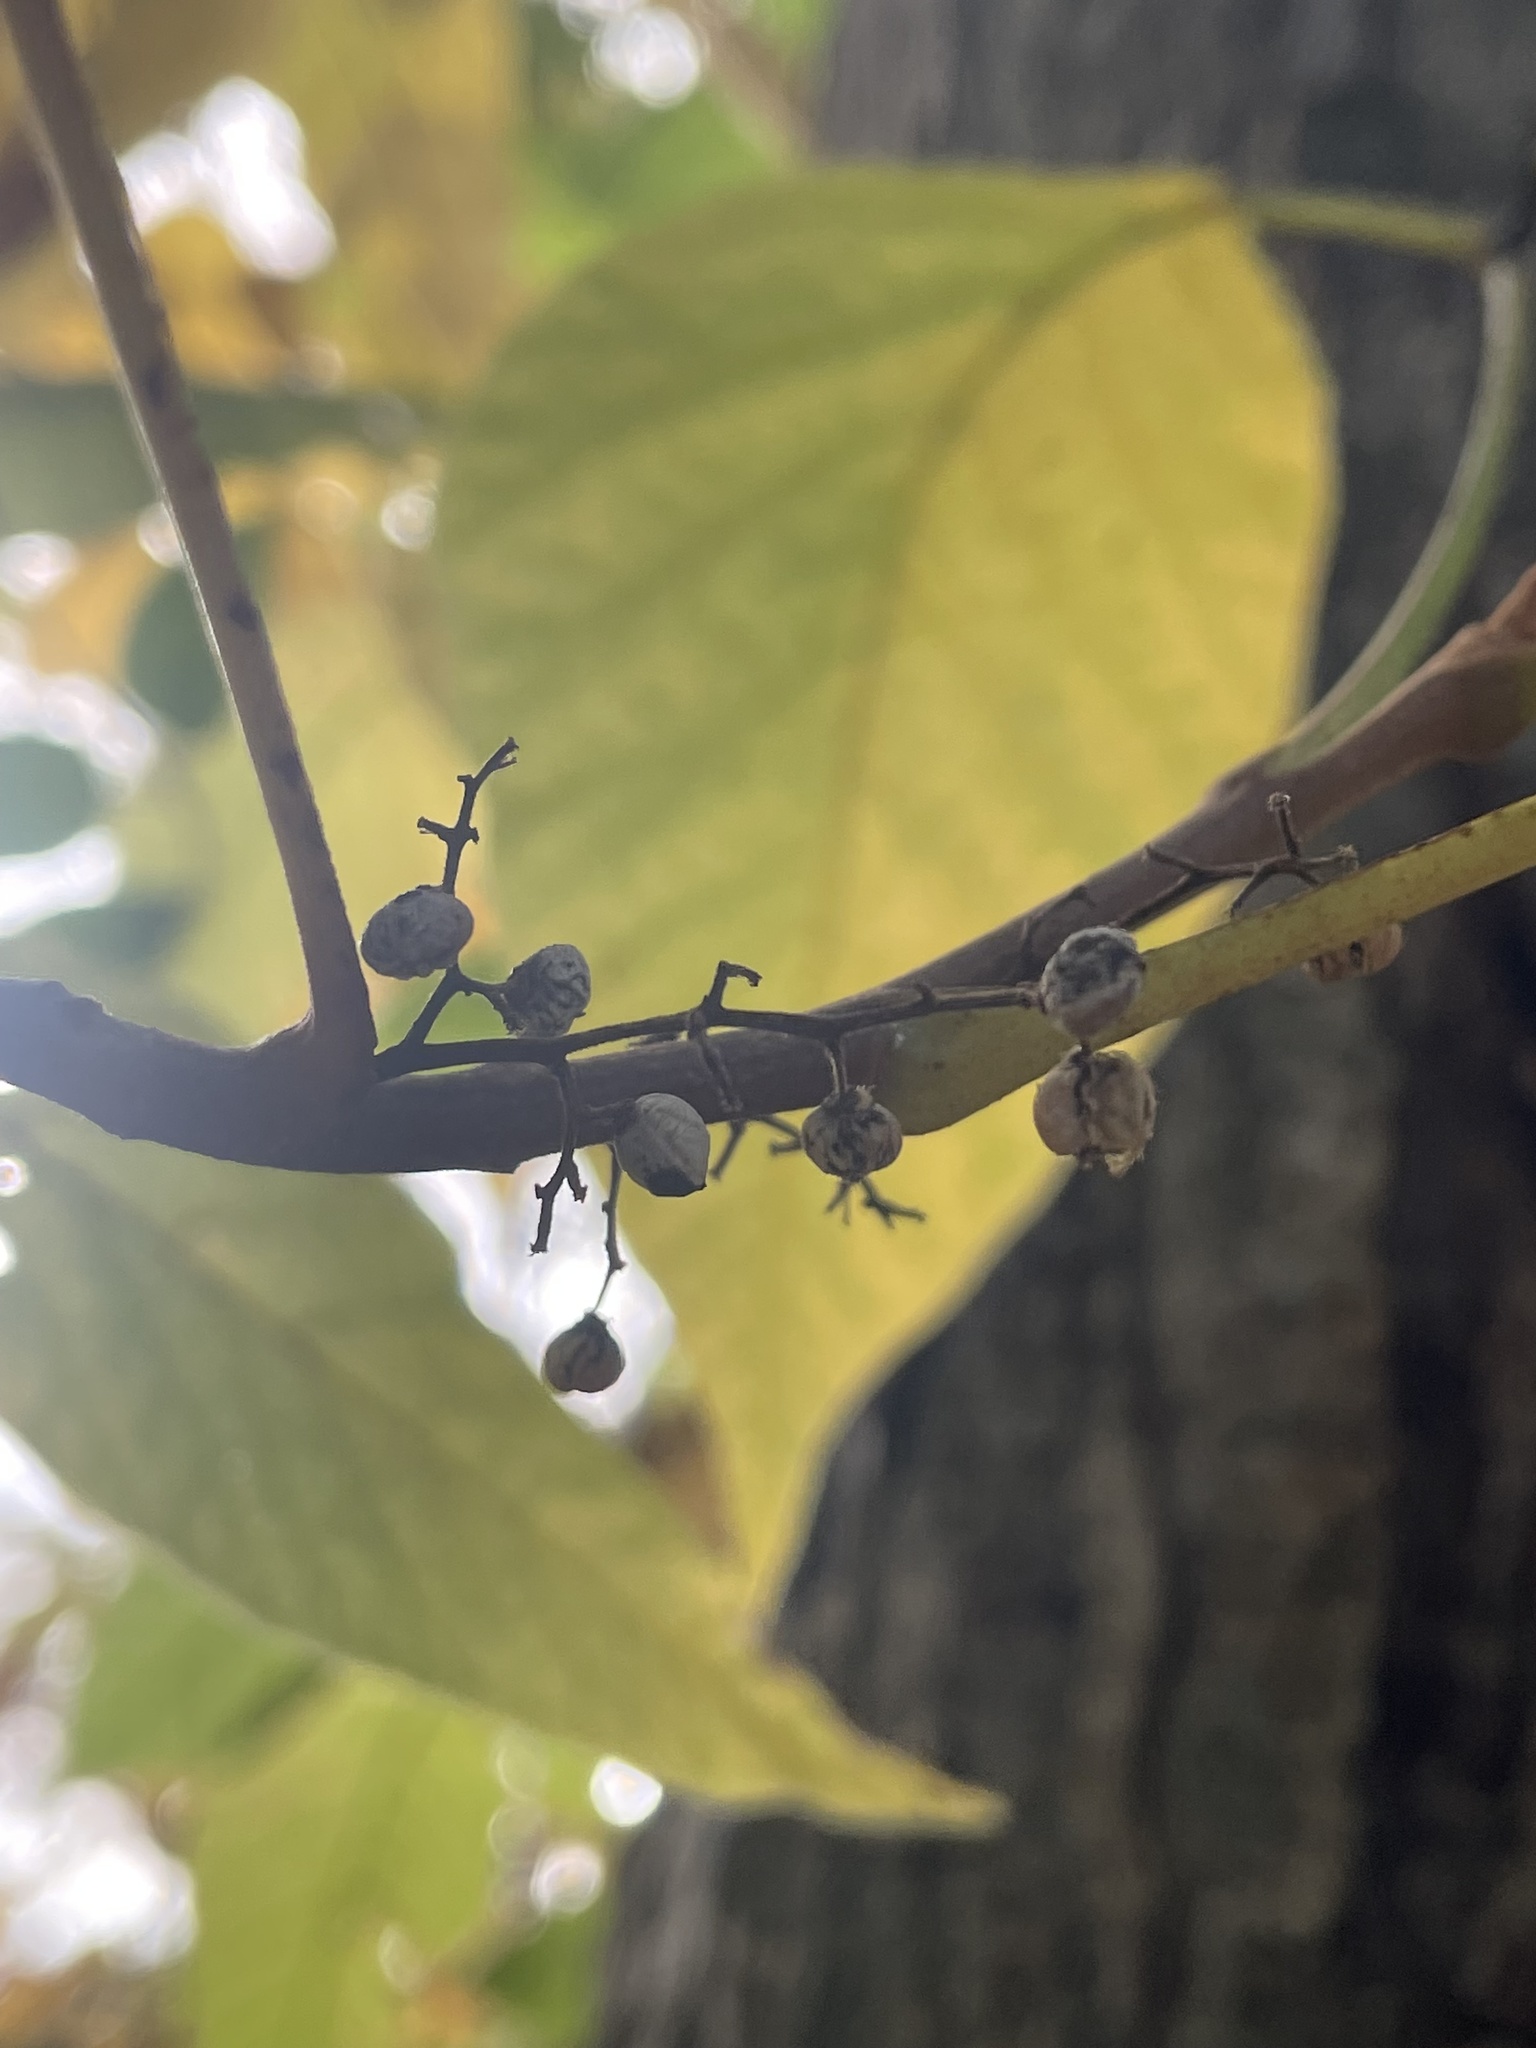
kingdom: Plantae
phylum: Tracheophyta
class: Magnoliopsida
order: Sapindales
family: Anacardiaceae
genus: Toxicodendron
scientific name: Toxicodendron radicans
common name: Poison ivy
